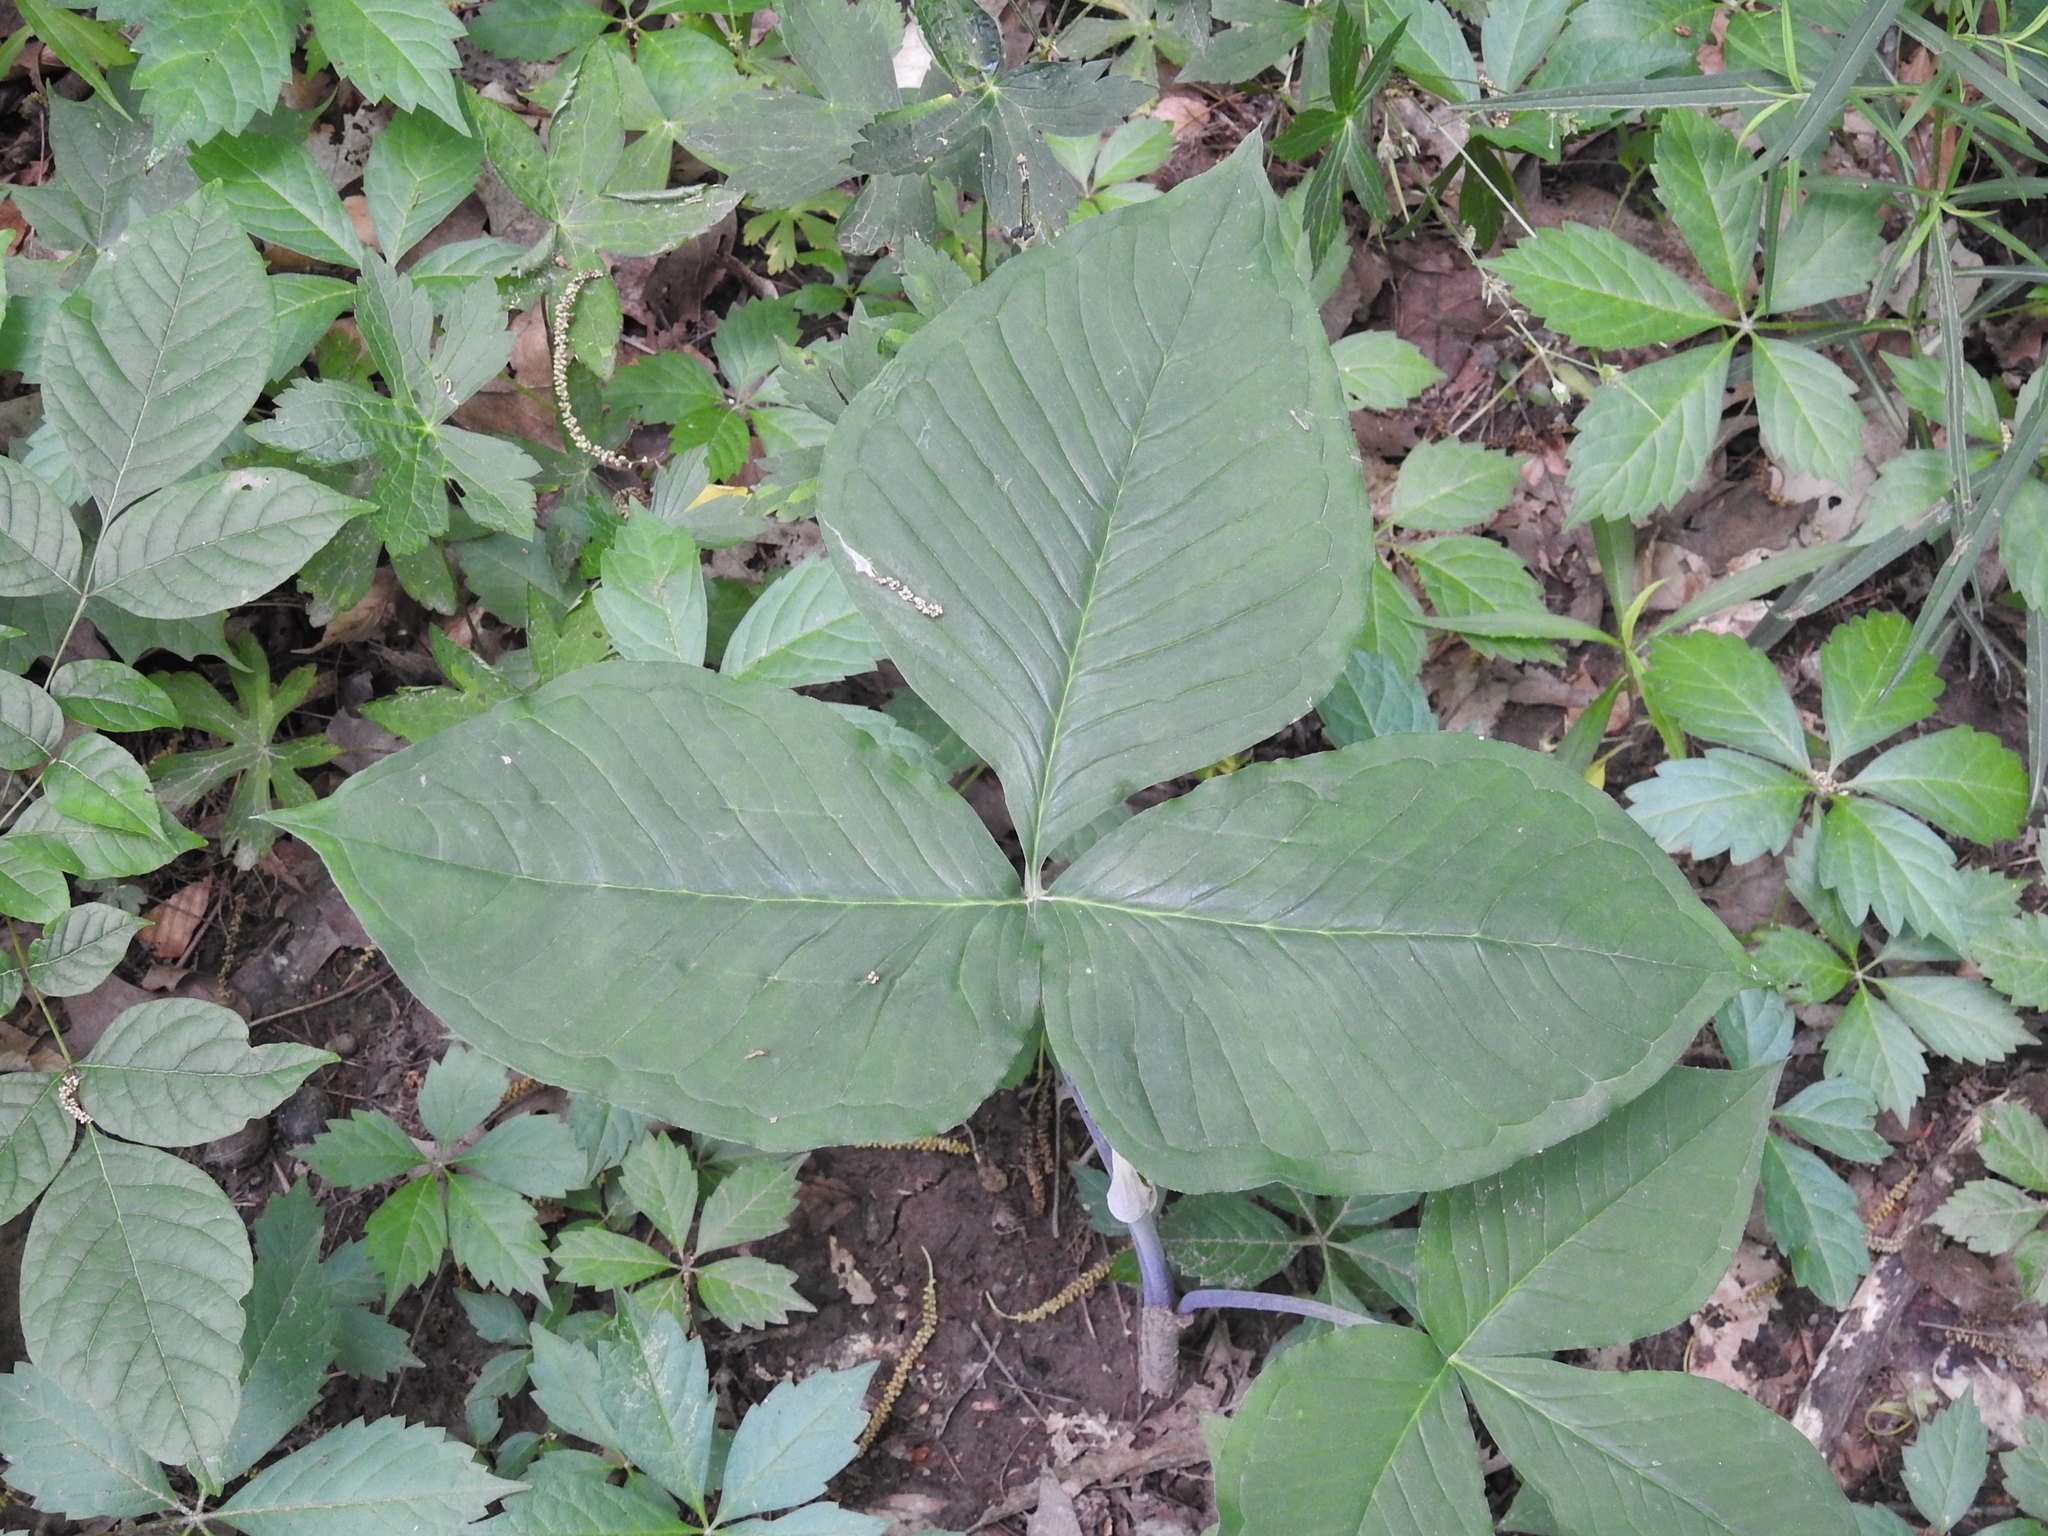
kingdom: Plantae
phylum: Tracheophyta
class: Liliopsida
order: Alismatales
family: Araceae
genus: Arisaema
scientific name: Arisaema triphyllum
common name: Jack-in-the-pulpit
